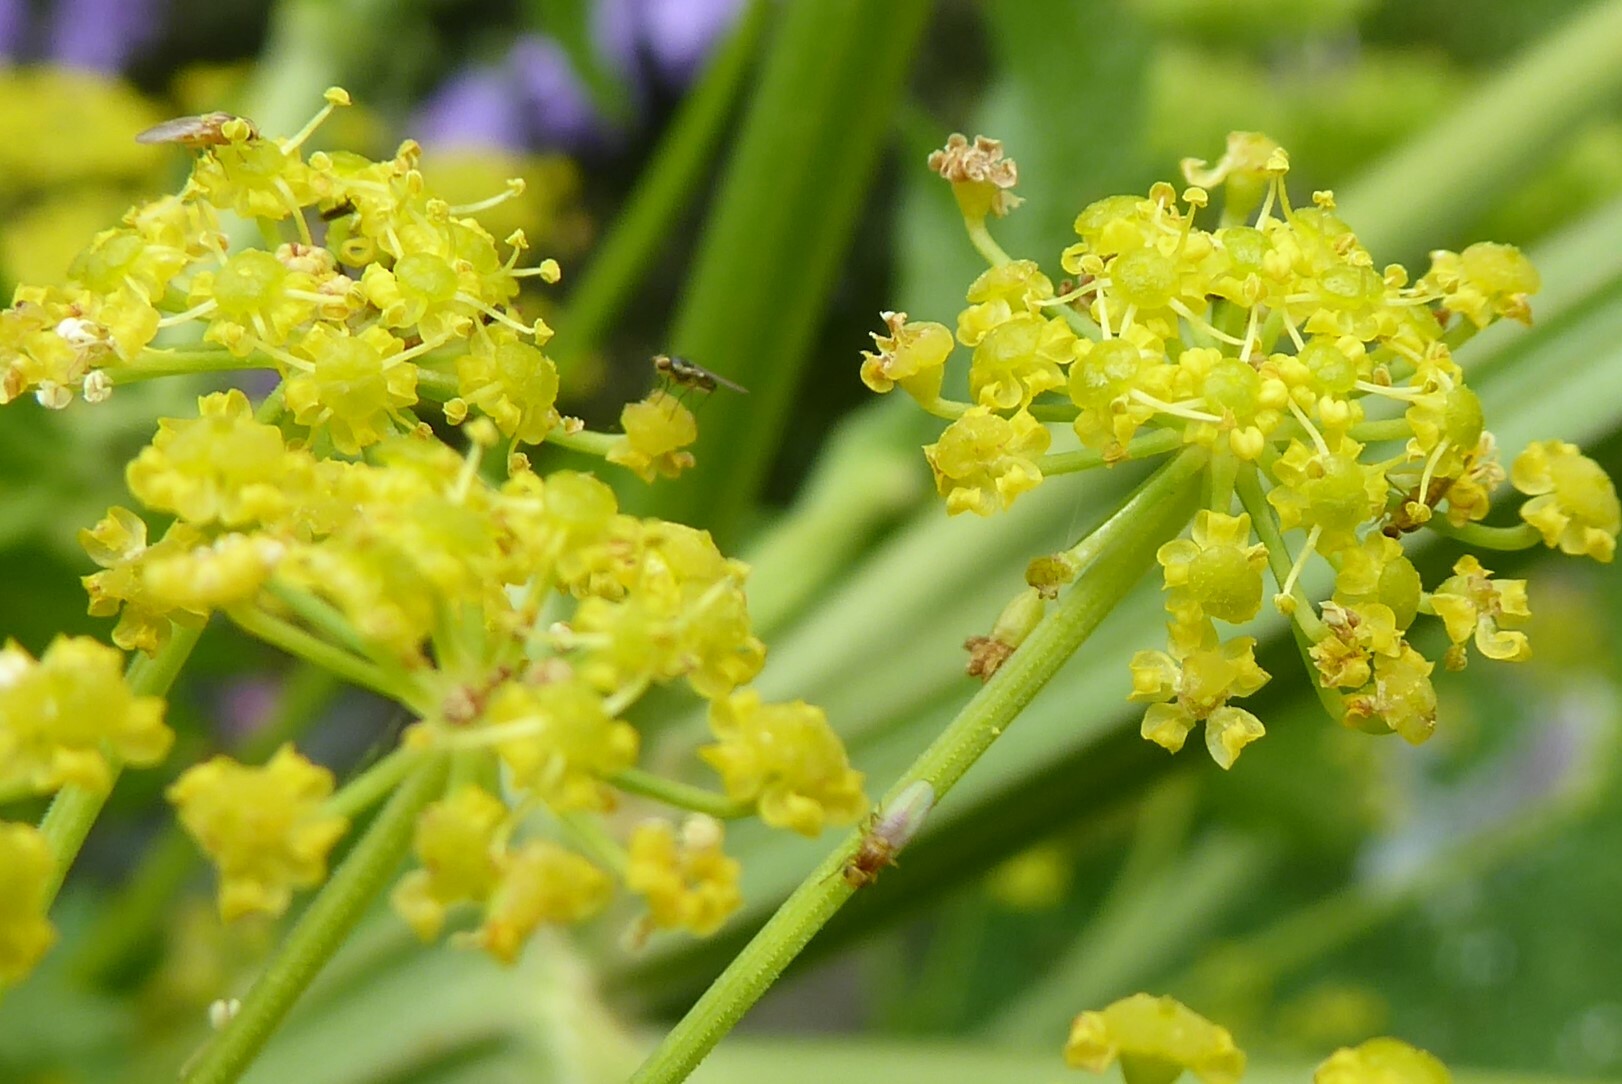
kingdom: Animalia
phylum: Arthropoda
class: Insecta
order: Diptera
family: Chloropidae
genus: Aphanotrigonum
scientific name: Aphanotrigonum huttoni
